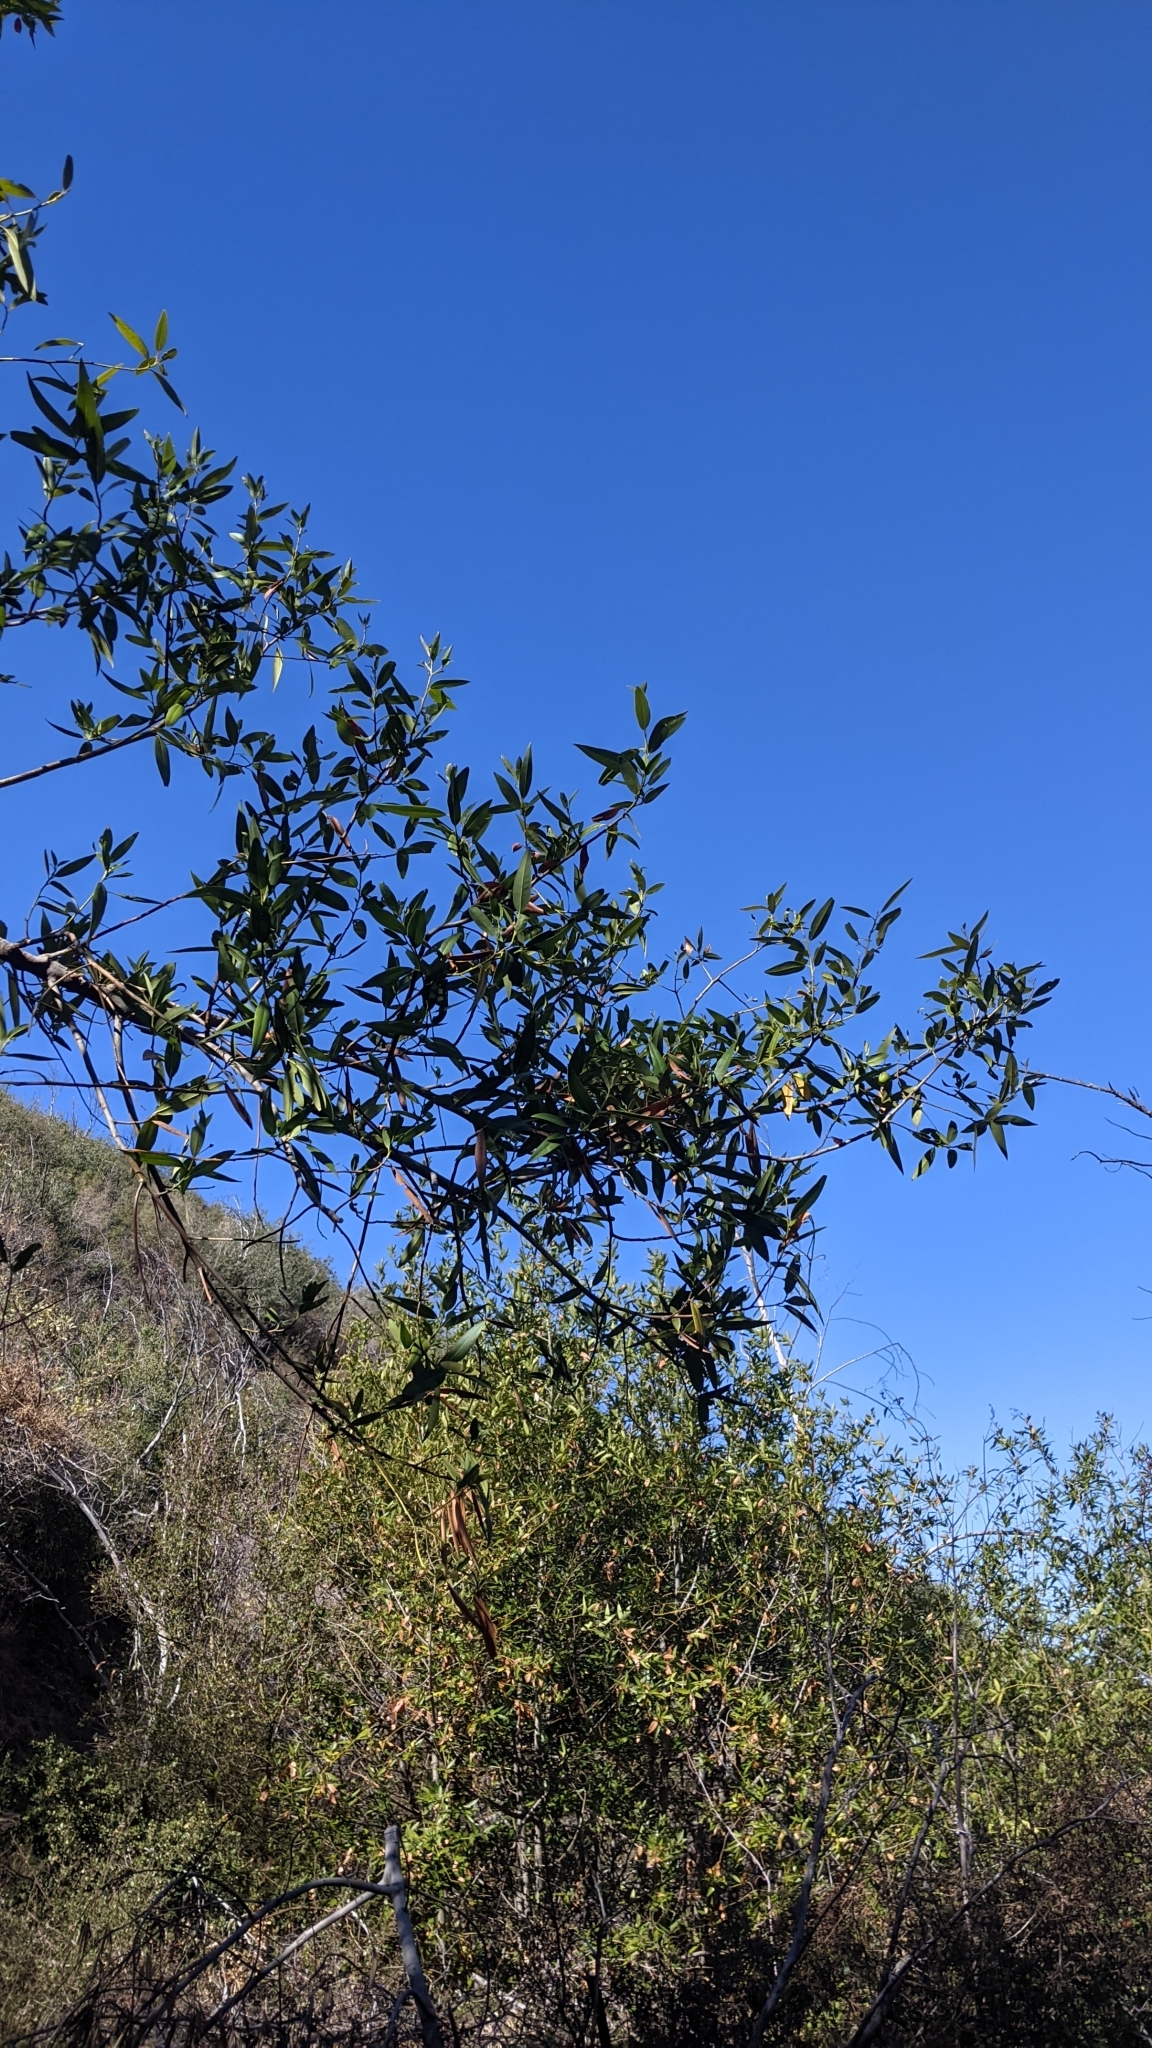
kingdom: Plantae
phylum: Tracheophyta
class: Magnoliopsida
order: Laurales
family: Lauraceae
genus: Umbellularia
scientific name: Umbellularia californica
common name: California bay
